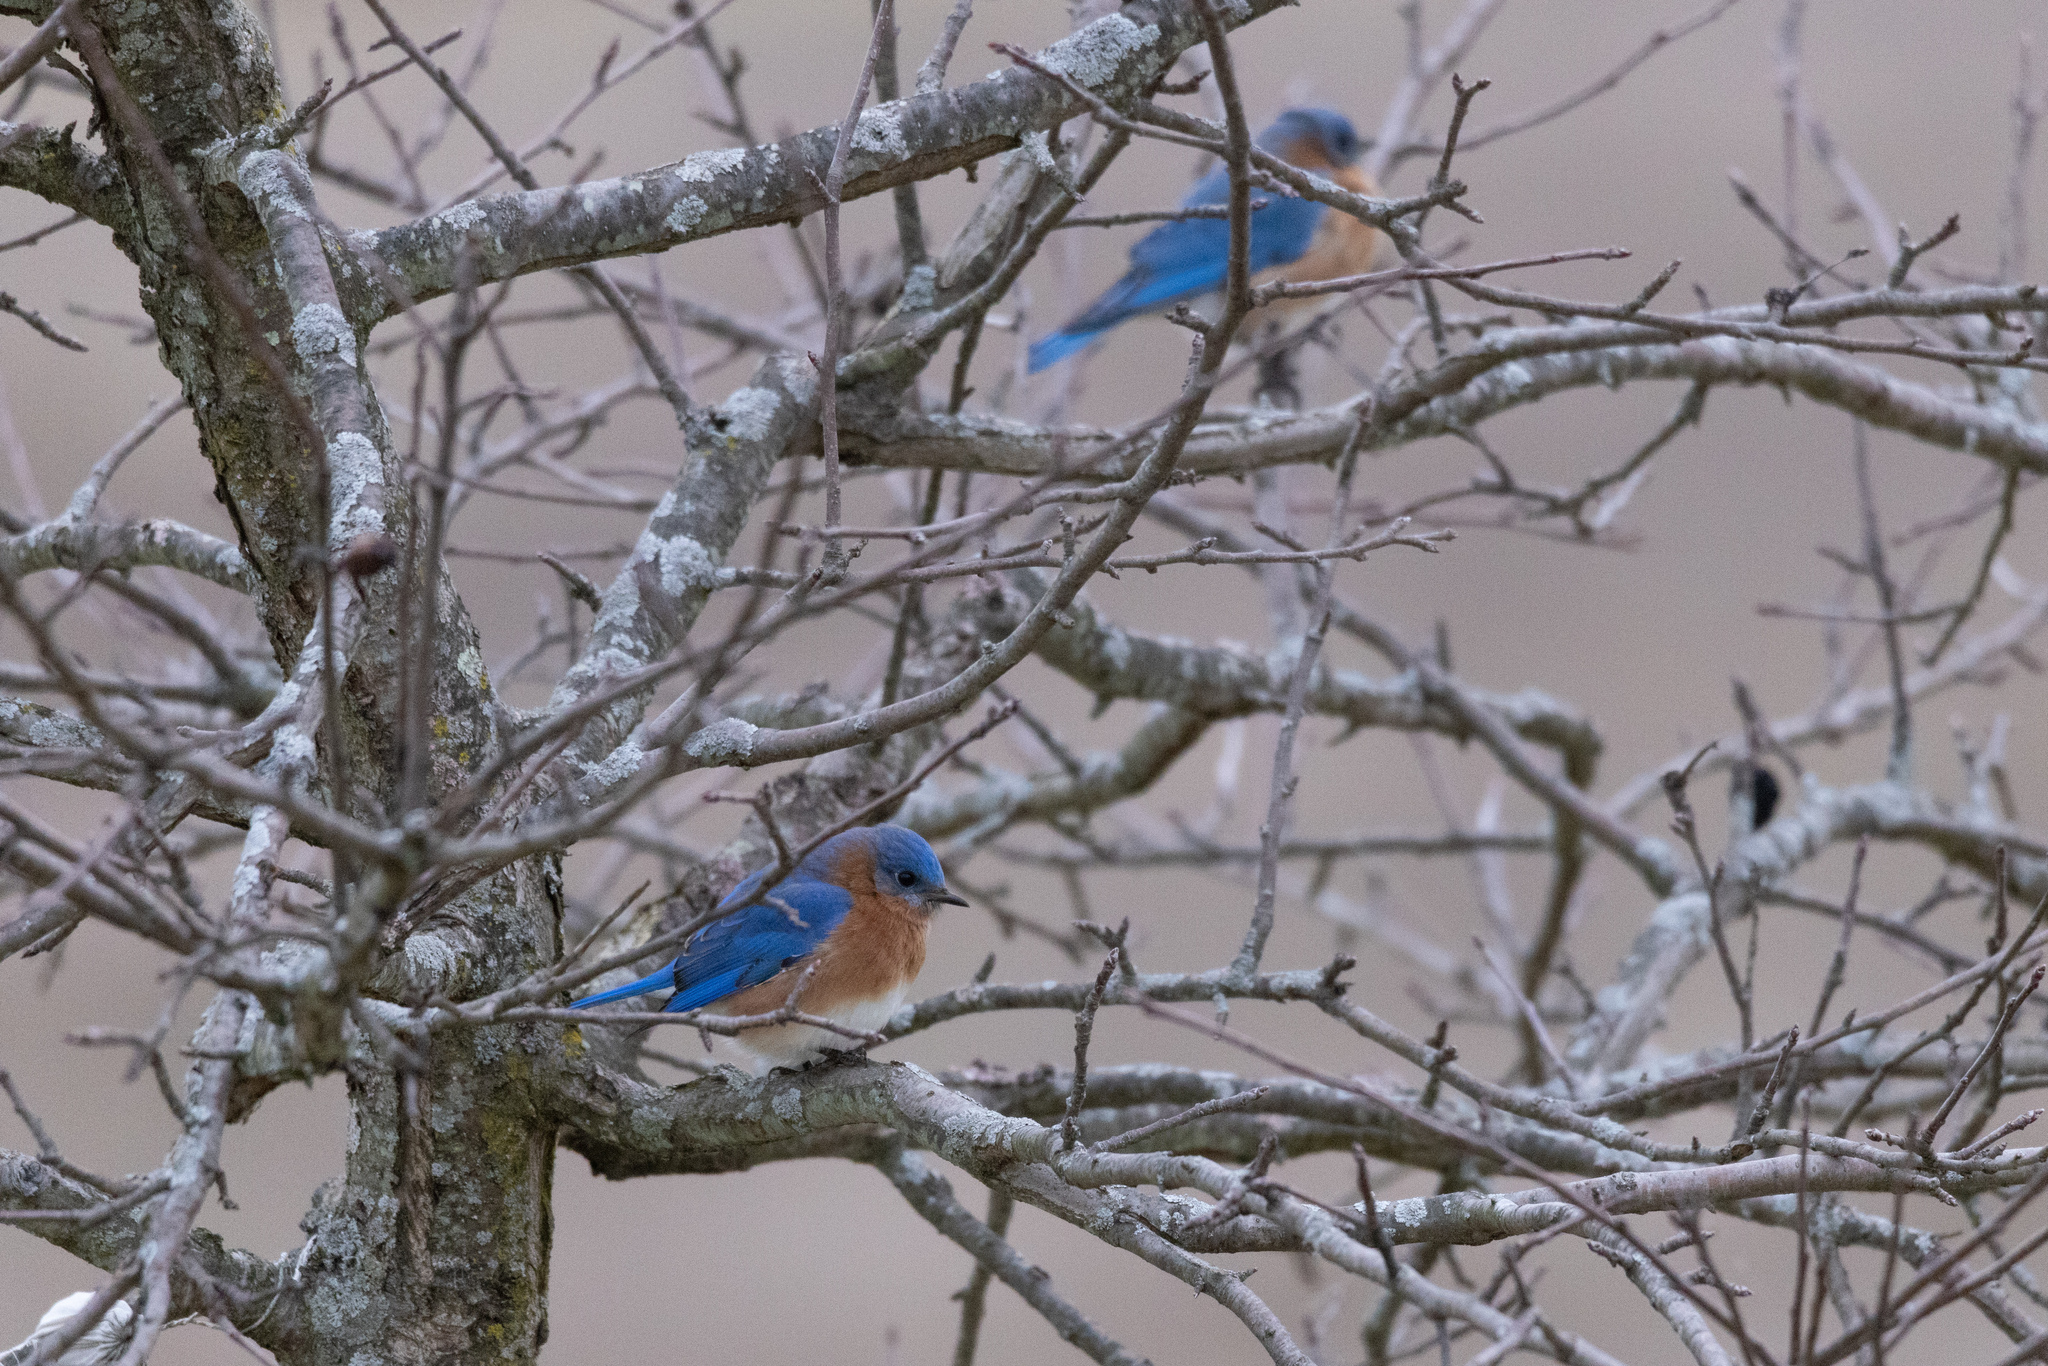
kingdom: Animalia
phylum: Chordata
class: Aves
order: Passeriformes
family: Turdidae
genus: Sialia
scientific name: Sialia sialis
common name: Eastern bluebird
